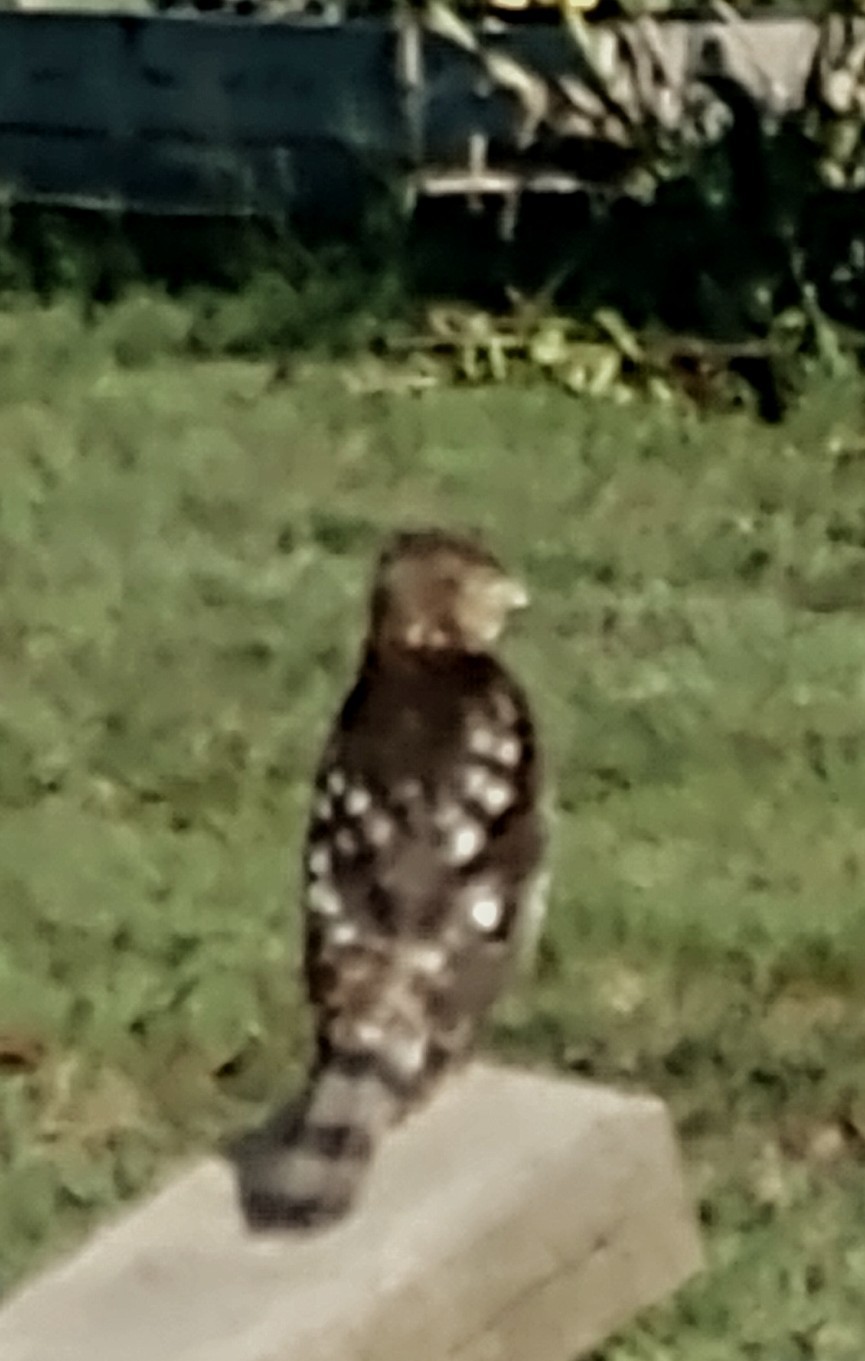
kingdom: Animalia
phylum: Chordata
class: Aves
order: Accipitriformes
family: Accipitridae
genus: Accipiter
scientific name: Accipiter cooperii
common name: Cooper's hawk
